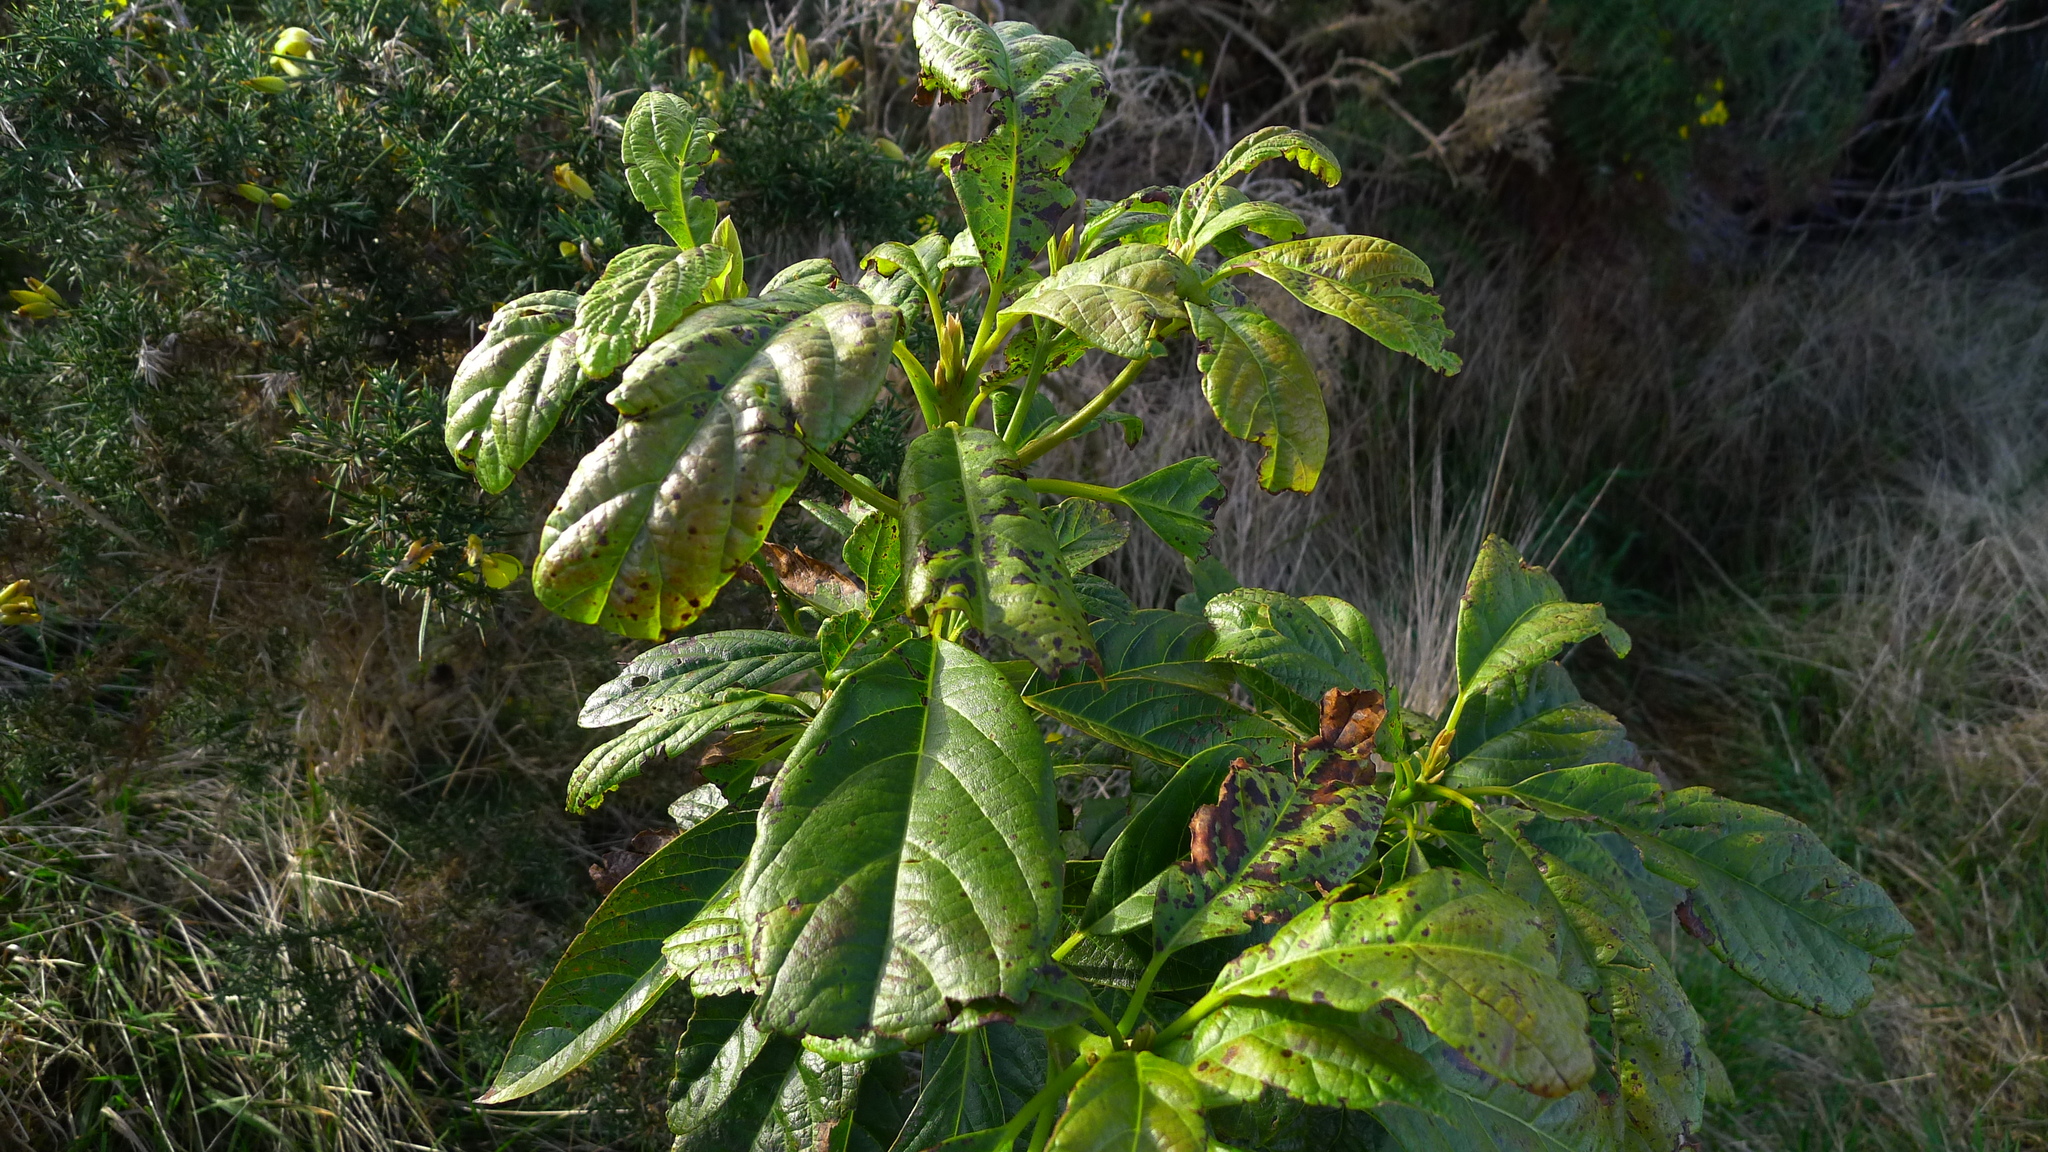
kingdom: Plantae
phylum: Tracheophyta
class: Magnoliopsida
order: Laurales
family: Lauraceae
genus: Persea
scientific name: Persea americana
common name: Avocado
